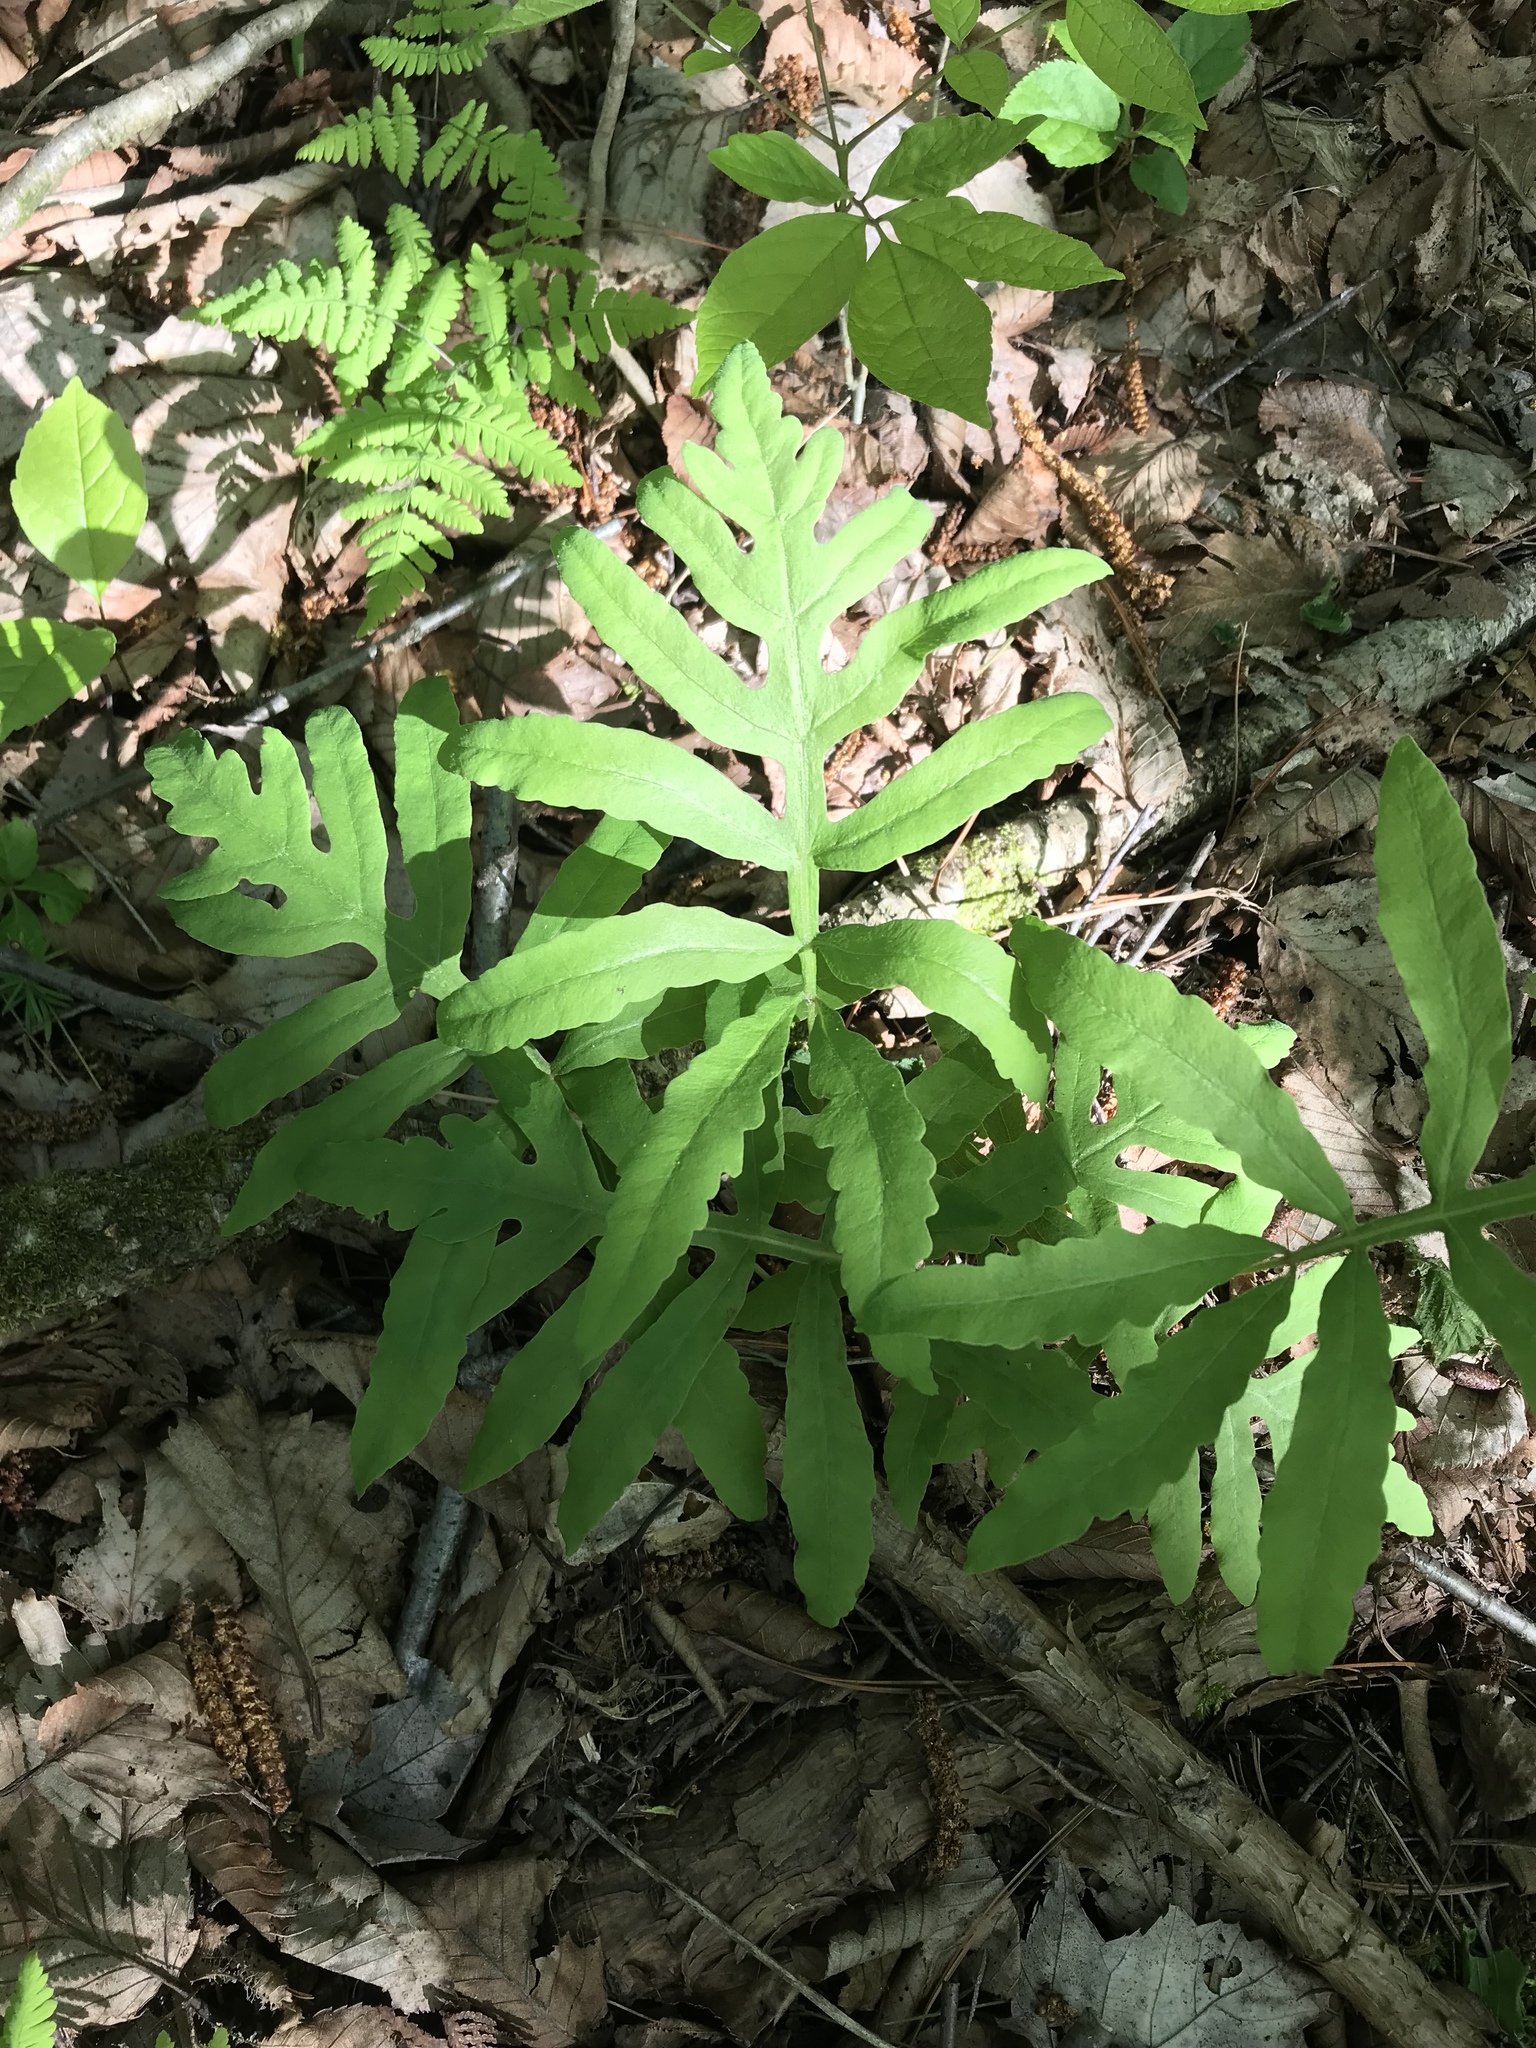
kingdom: Plantae
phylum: Tracheophyta
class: Polypodiopsida
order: Polypodiales
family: Onocleaceae
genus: Onoclea
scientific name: Onoclea sensibilis
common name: Sensitive fern
